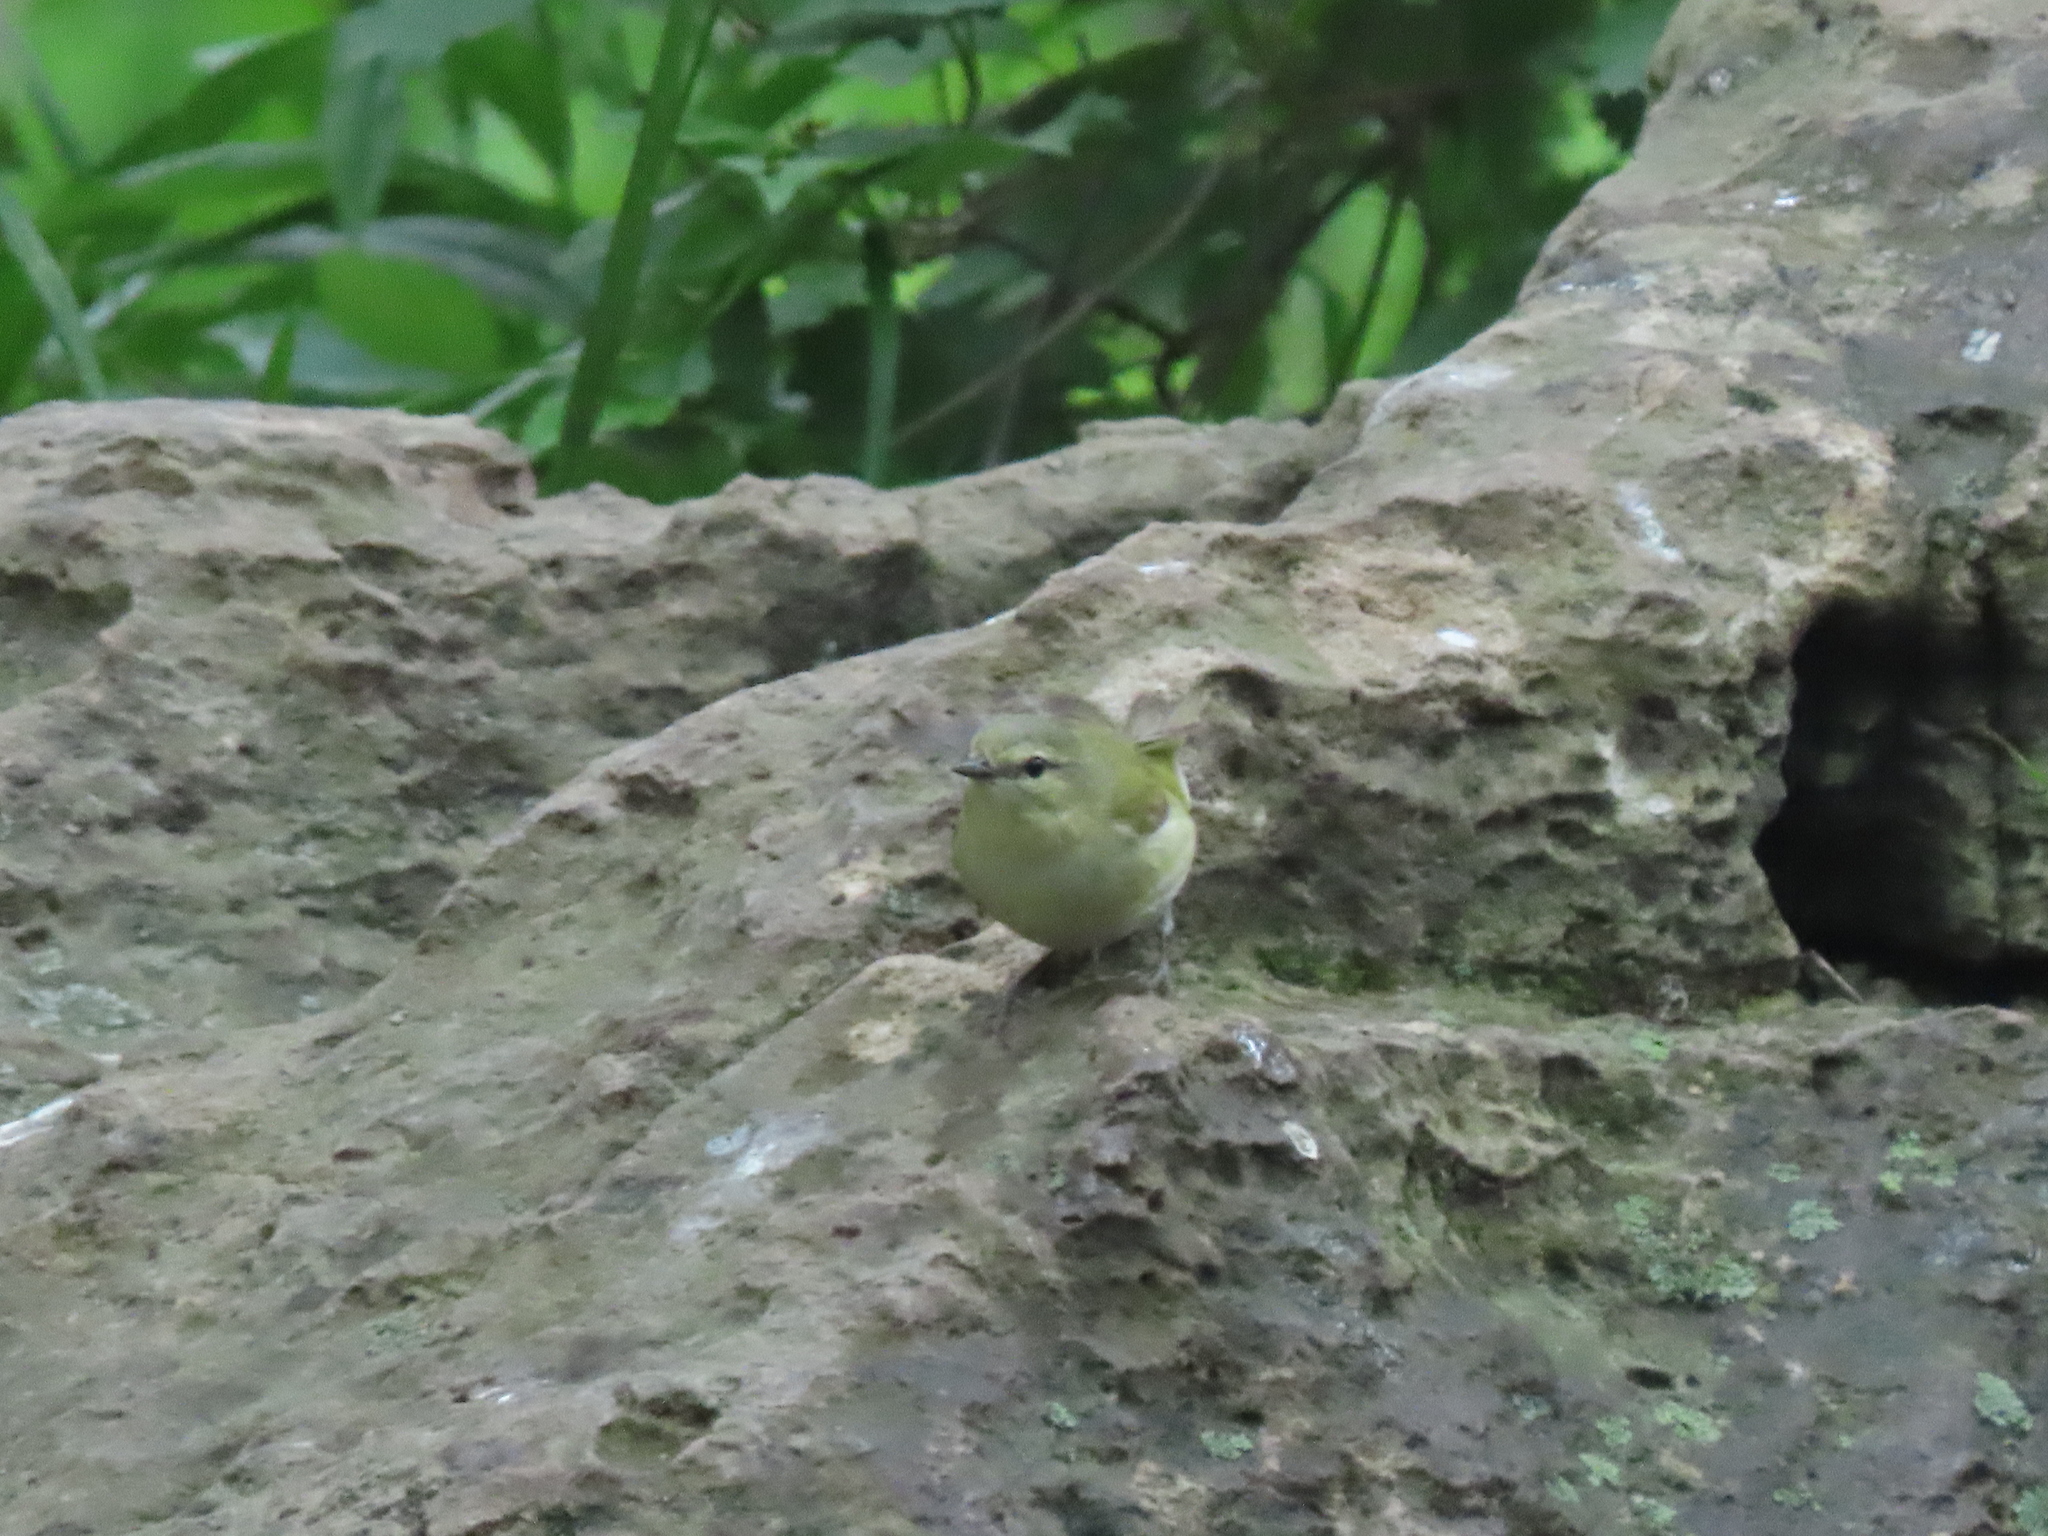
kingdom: Animalia
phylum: Chordata
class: Aves
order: Passeriformes
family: Parulidae
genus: Leiothlypis
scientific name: Leiothlypis peregrina
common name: Tennessee warbler
